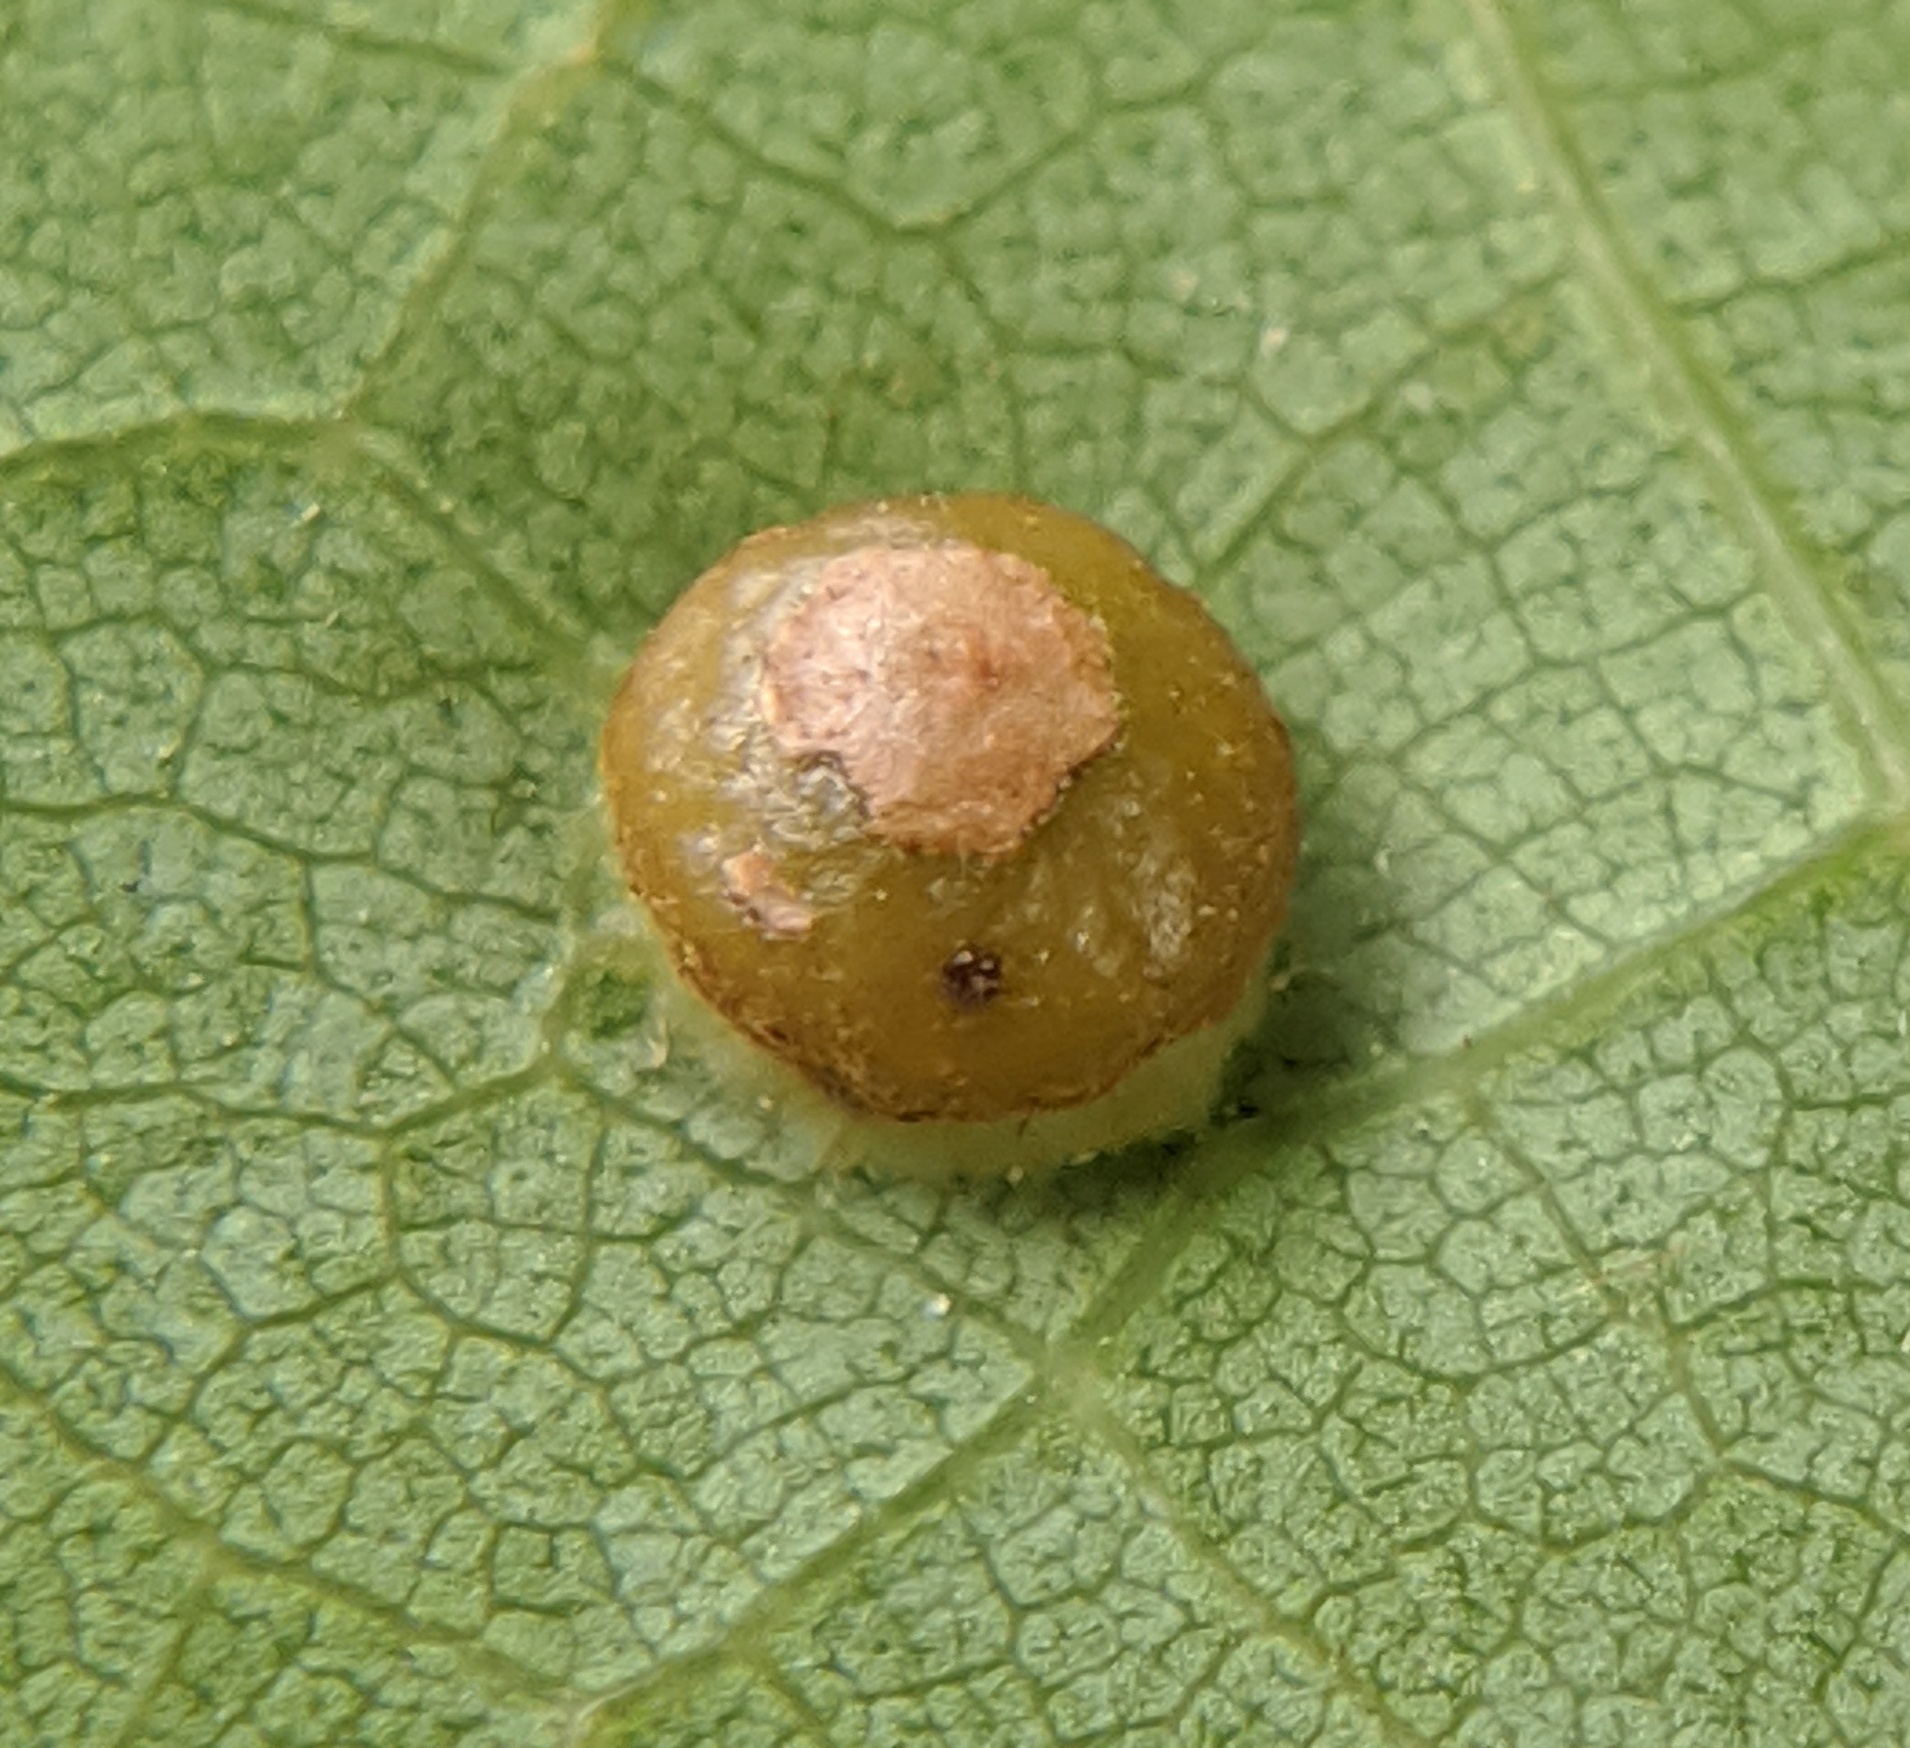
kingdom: Animalia
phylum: Arthropoda
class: Insecta
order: Diptera
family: Cecidomyiidae
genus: Polystepha
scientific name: Polystepha globosa
